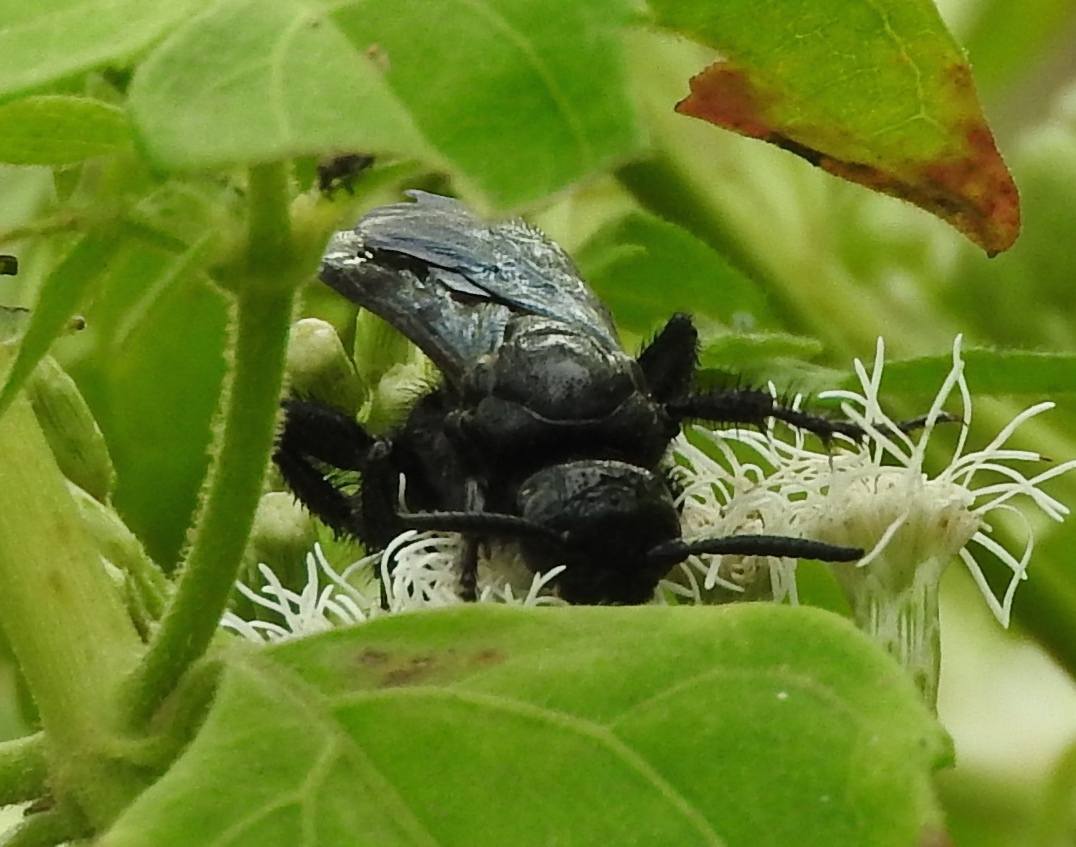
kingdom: Animalia
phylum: Arthropoda
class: Insecta
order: Hymenoptera
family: Scoliidae
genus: Scolia
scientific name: Scolia
